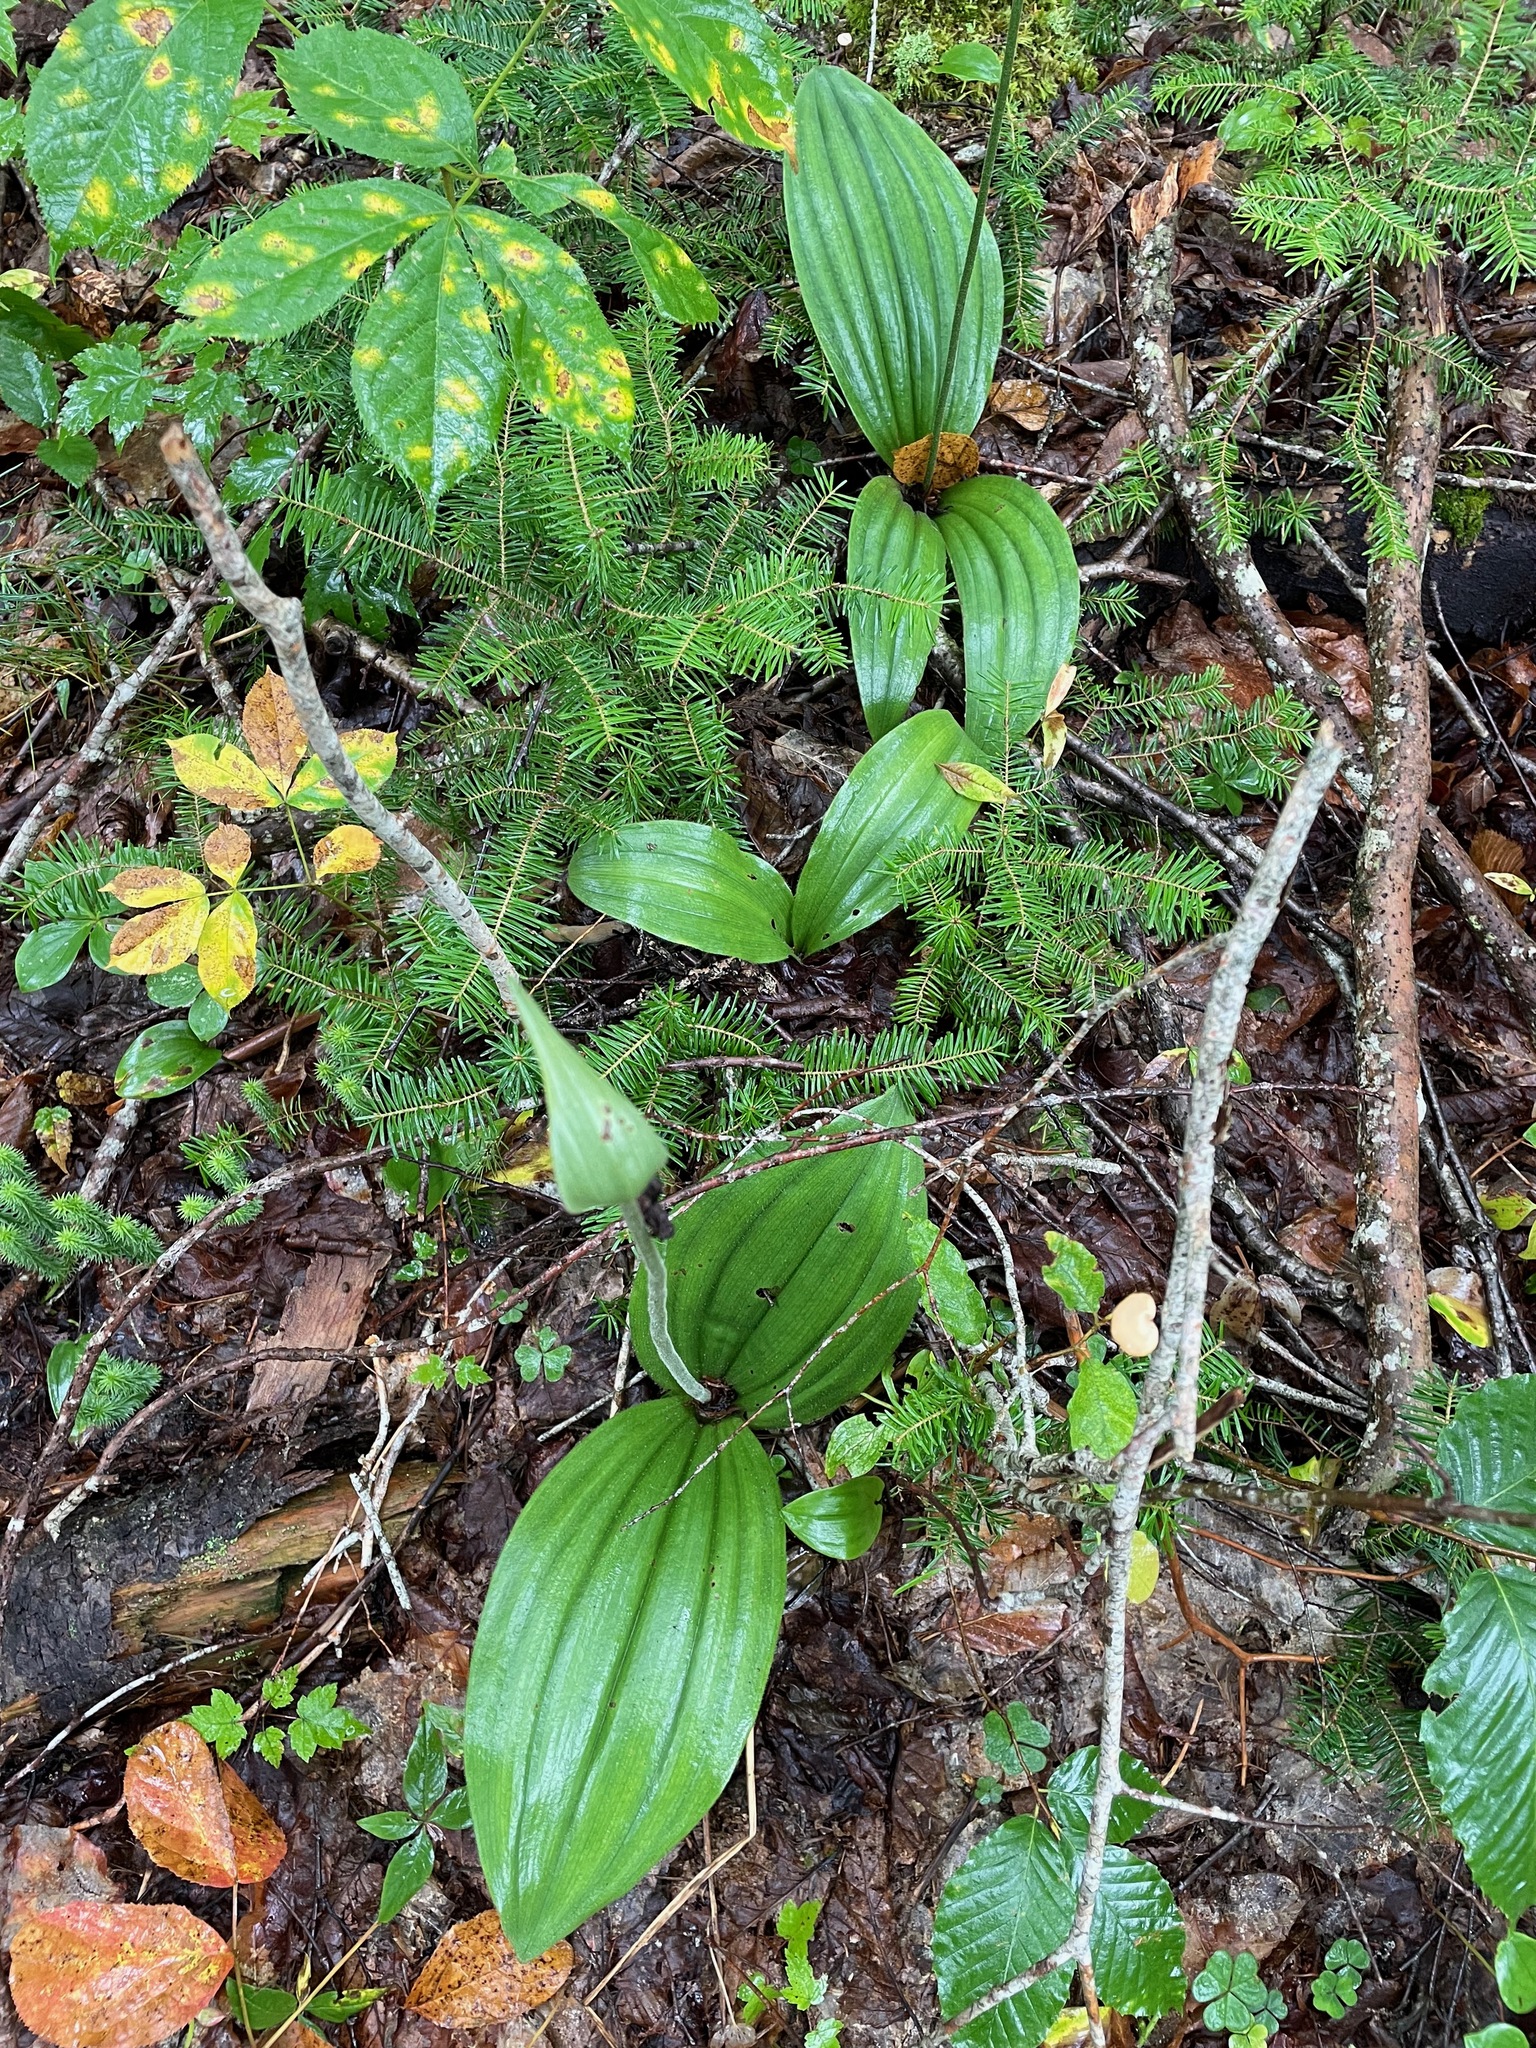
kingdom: Plantae
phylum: Tracheophyta
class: Liliopsida
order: Asparagales
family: Orchidaceae
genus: Cypripedium
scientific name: Cypripedium acaule
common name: Pink lady's-slipper
